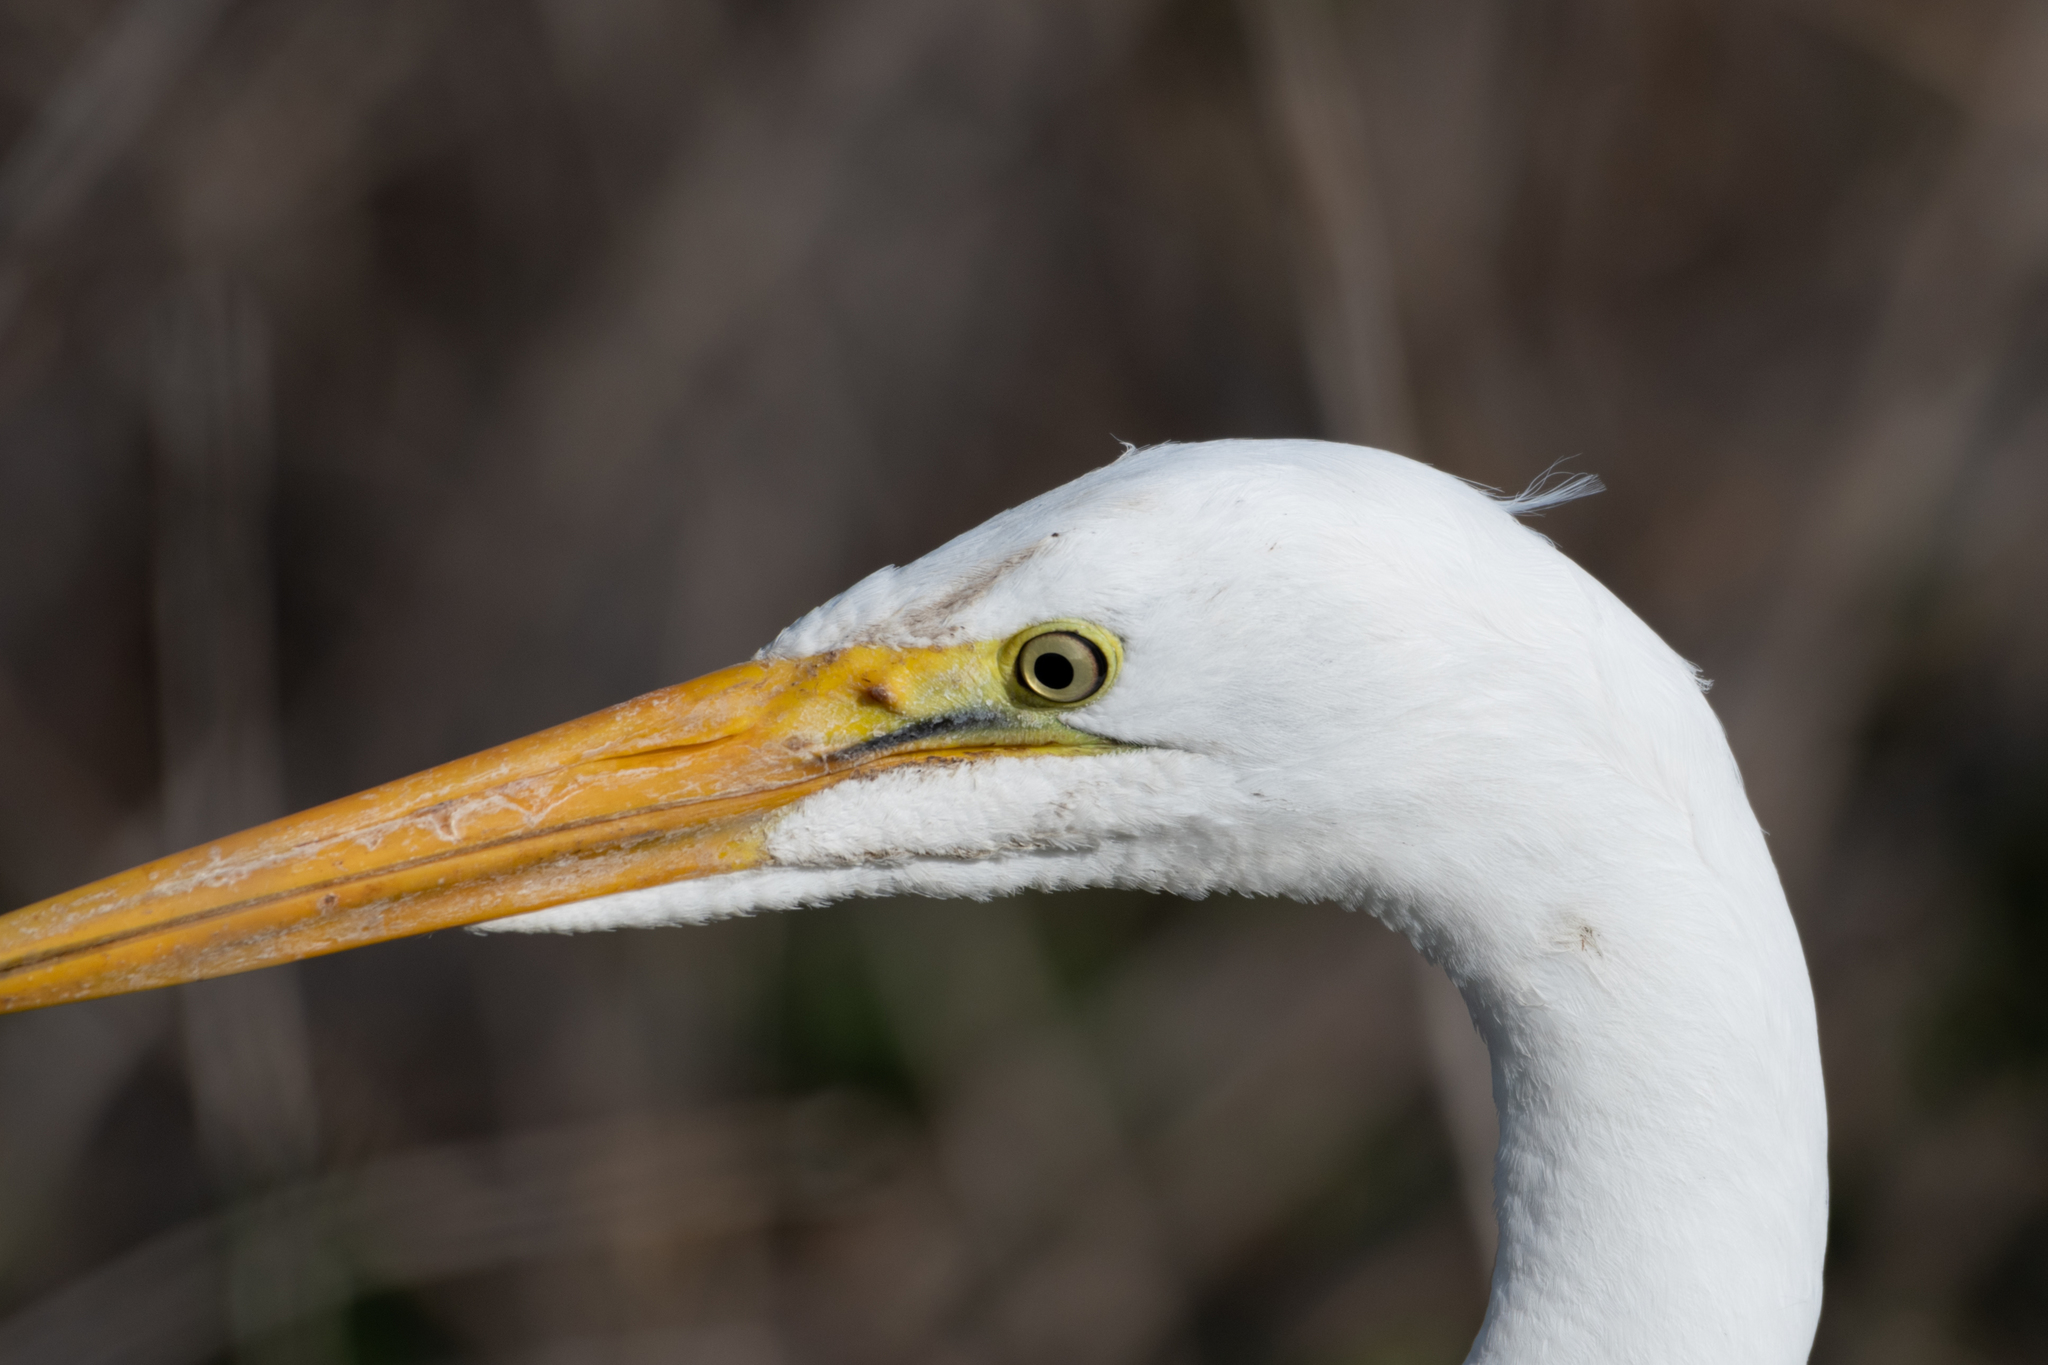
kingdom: Animalia
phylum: Chordata
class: Aves
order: Pelecaniformes
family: Ardeidae
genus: Ardea
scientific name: Ardea alba
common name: Great egret
